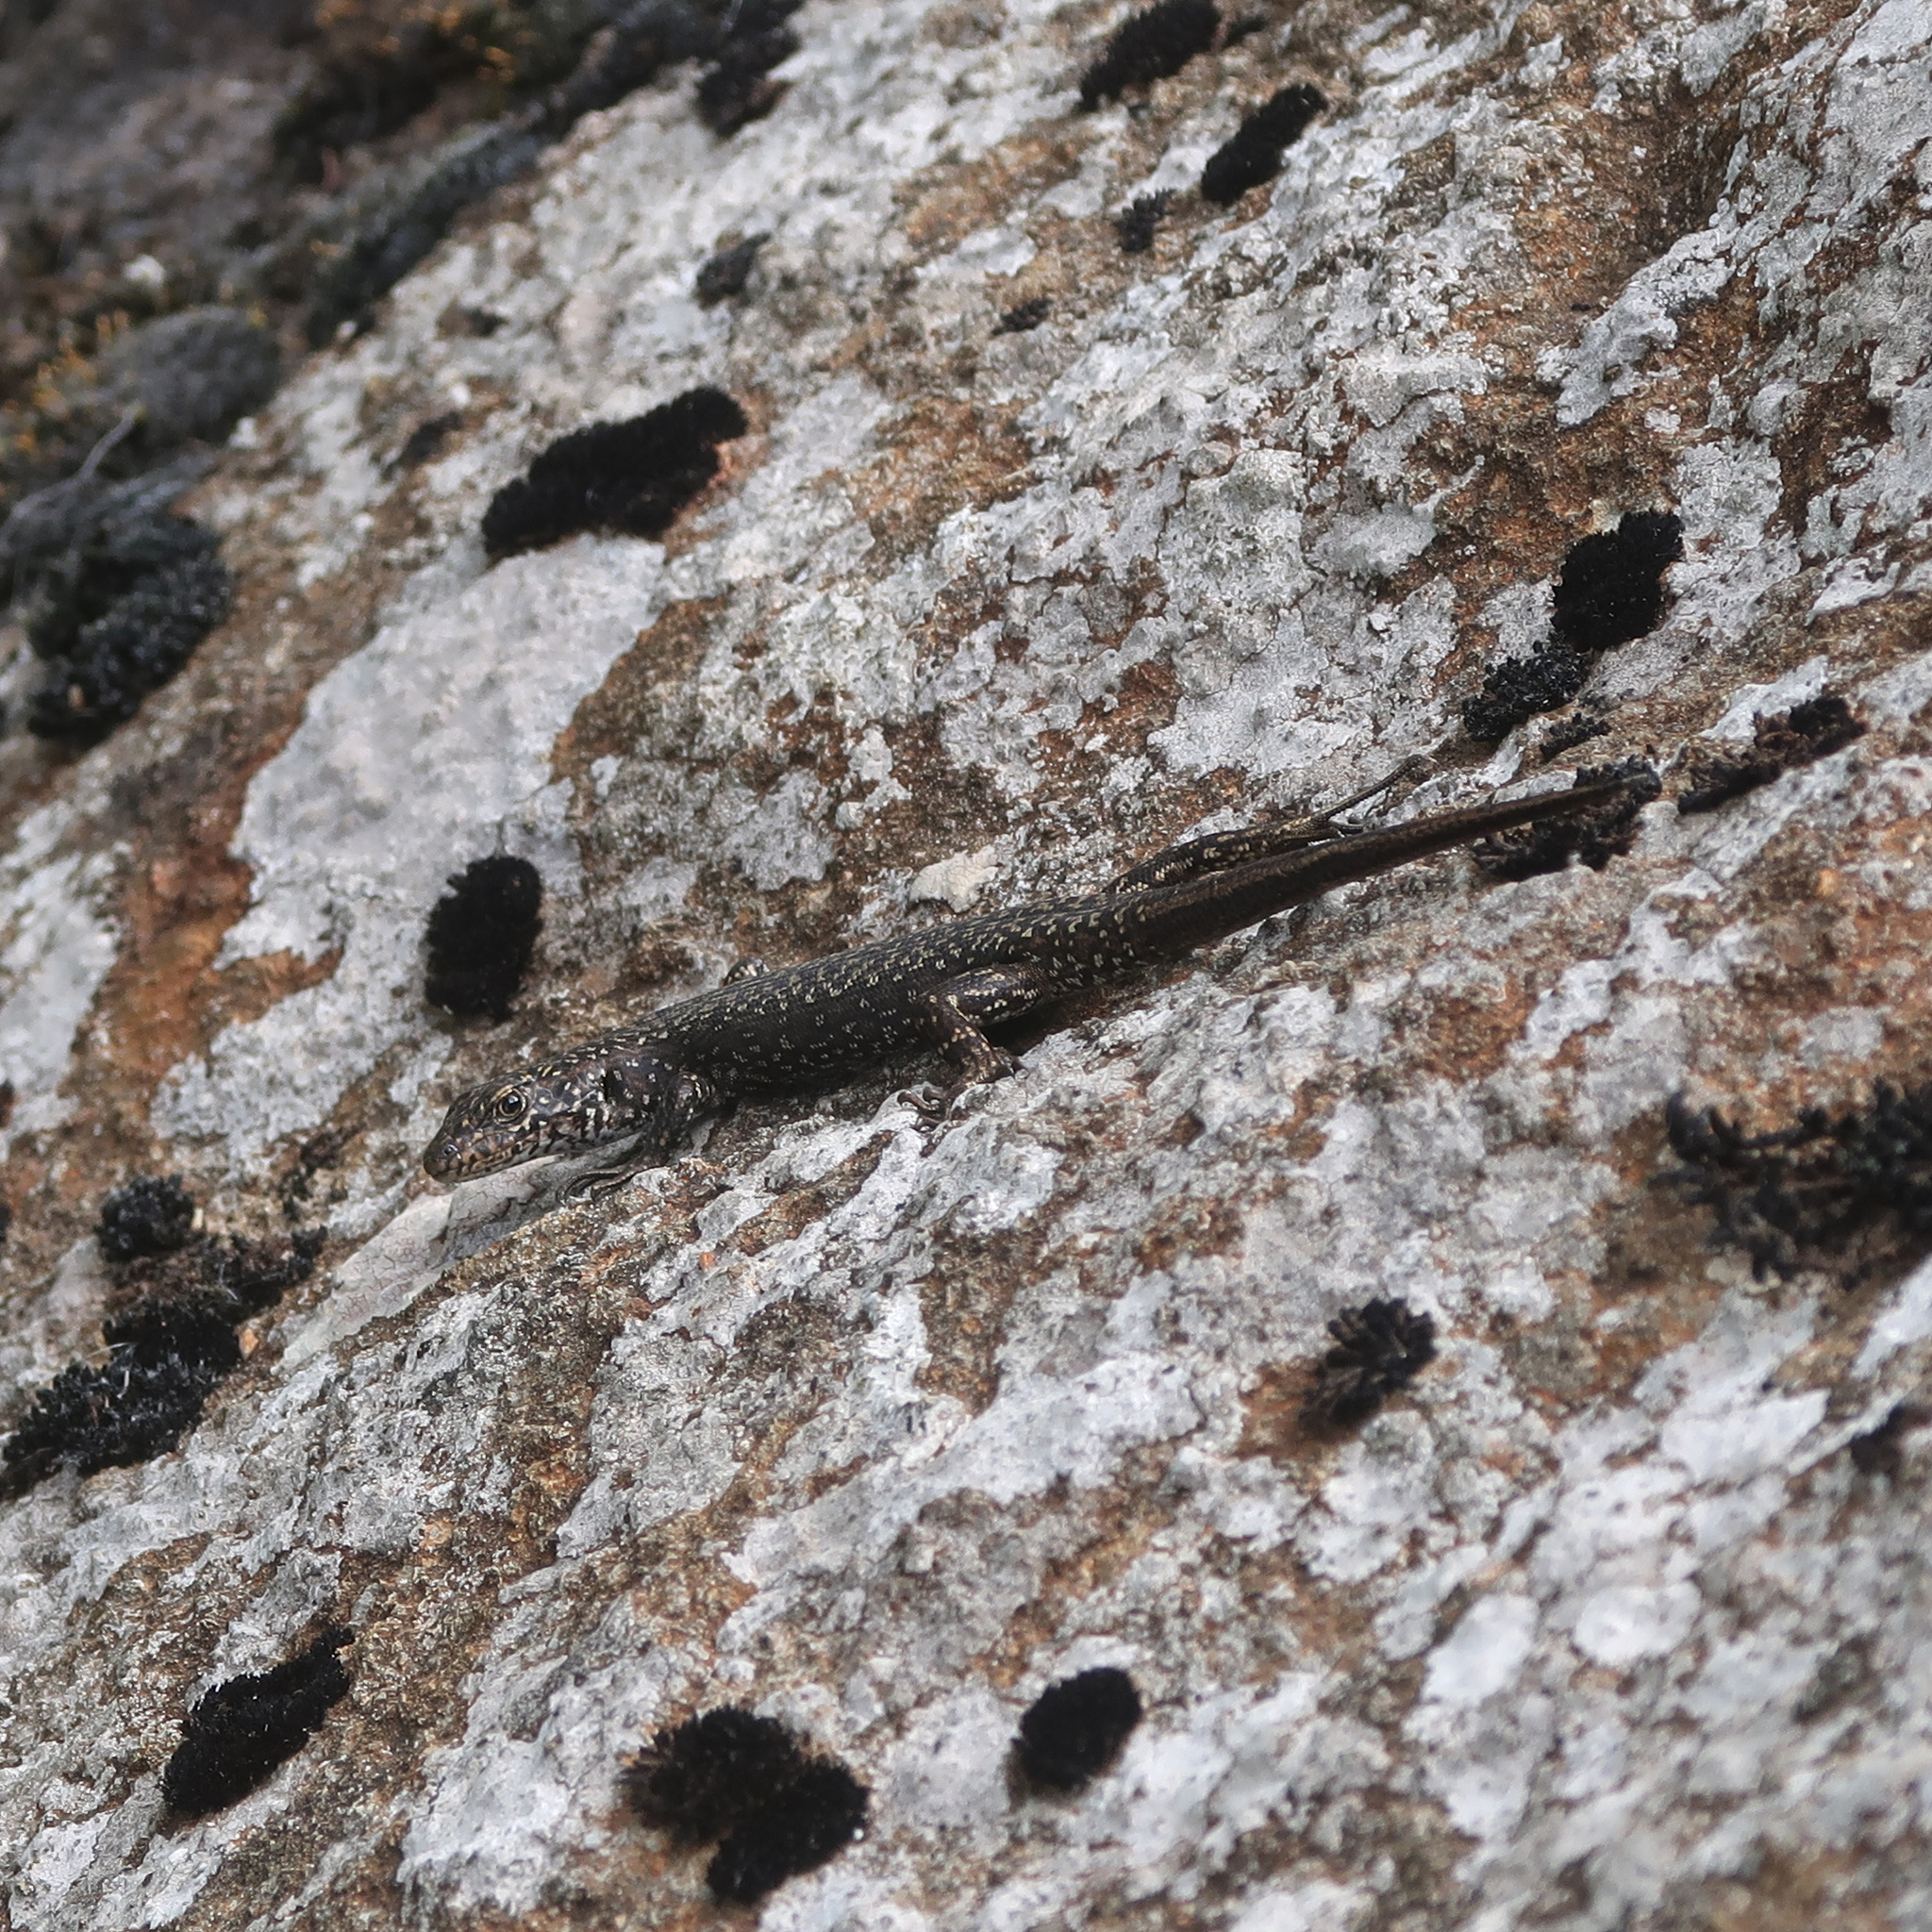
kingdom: Animalia
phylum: Chordata
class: Squamata
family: Scincidae
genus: Carinascincus
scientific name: Carinascincus ocellatus
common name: Ocellated cool-skink
